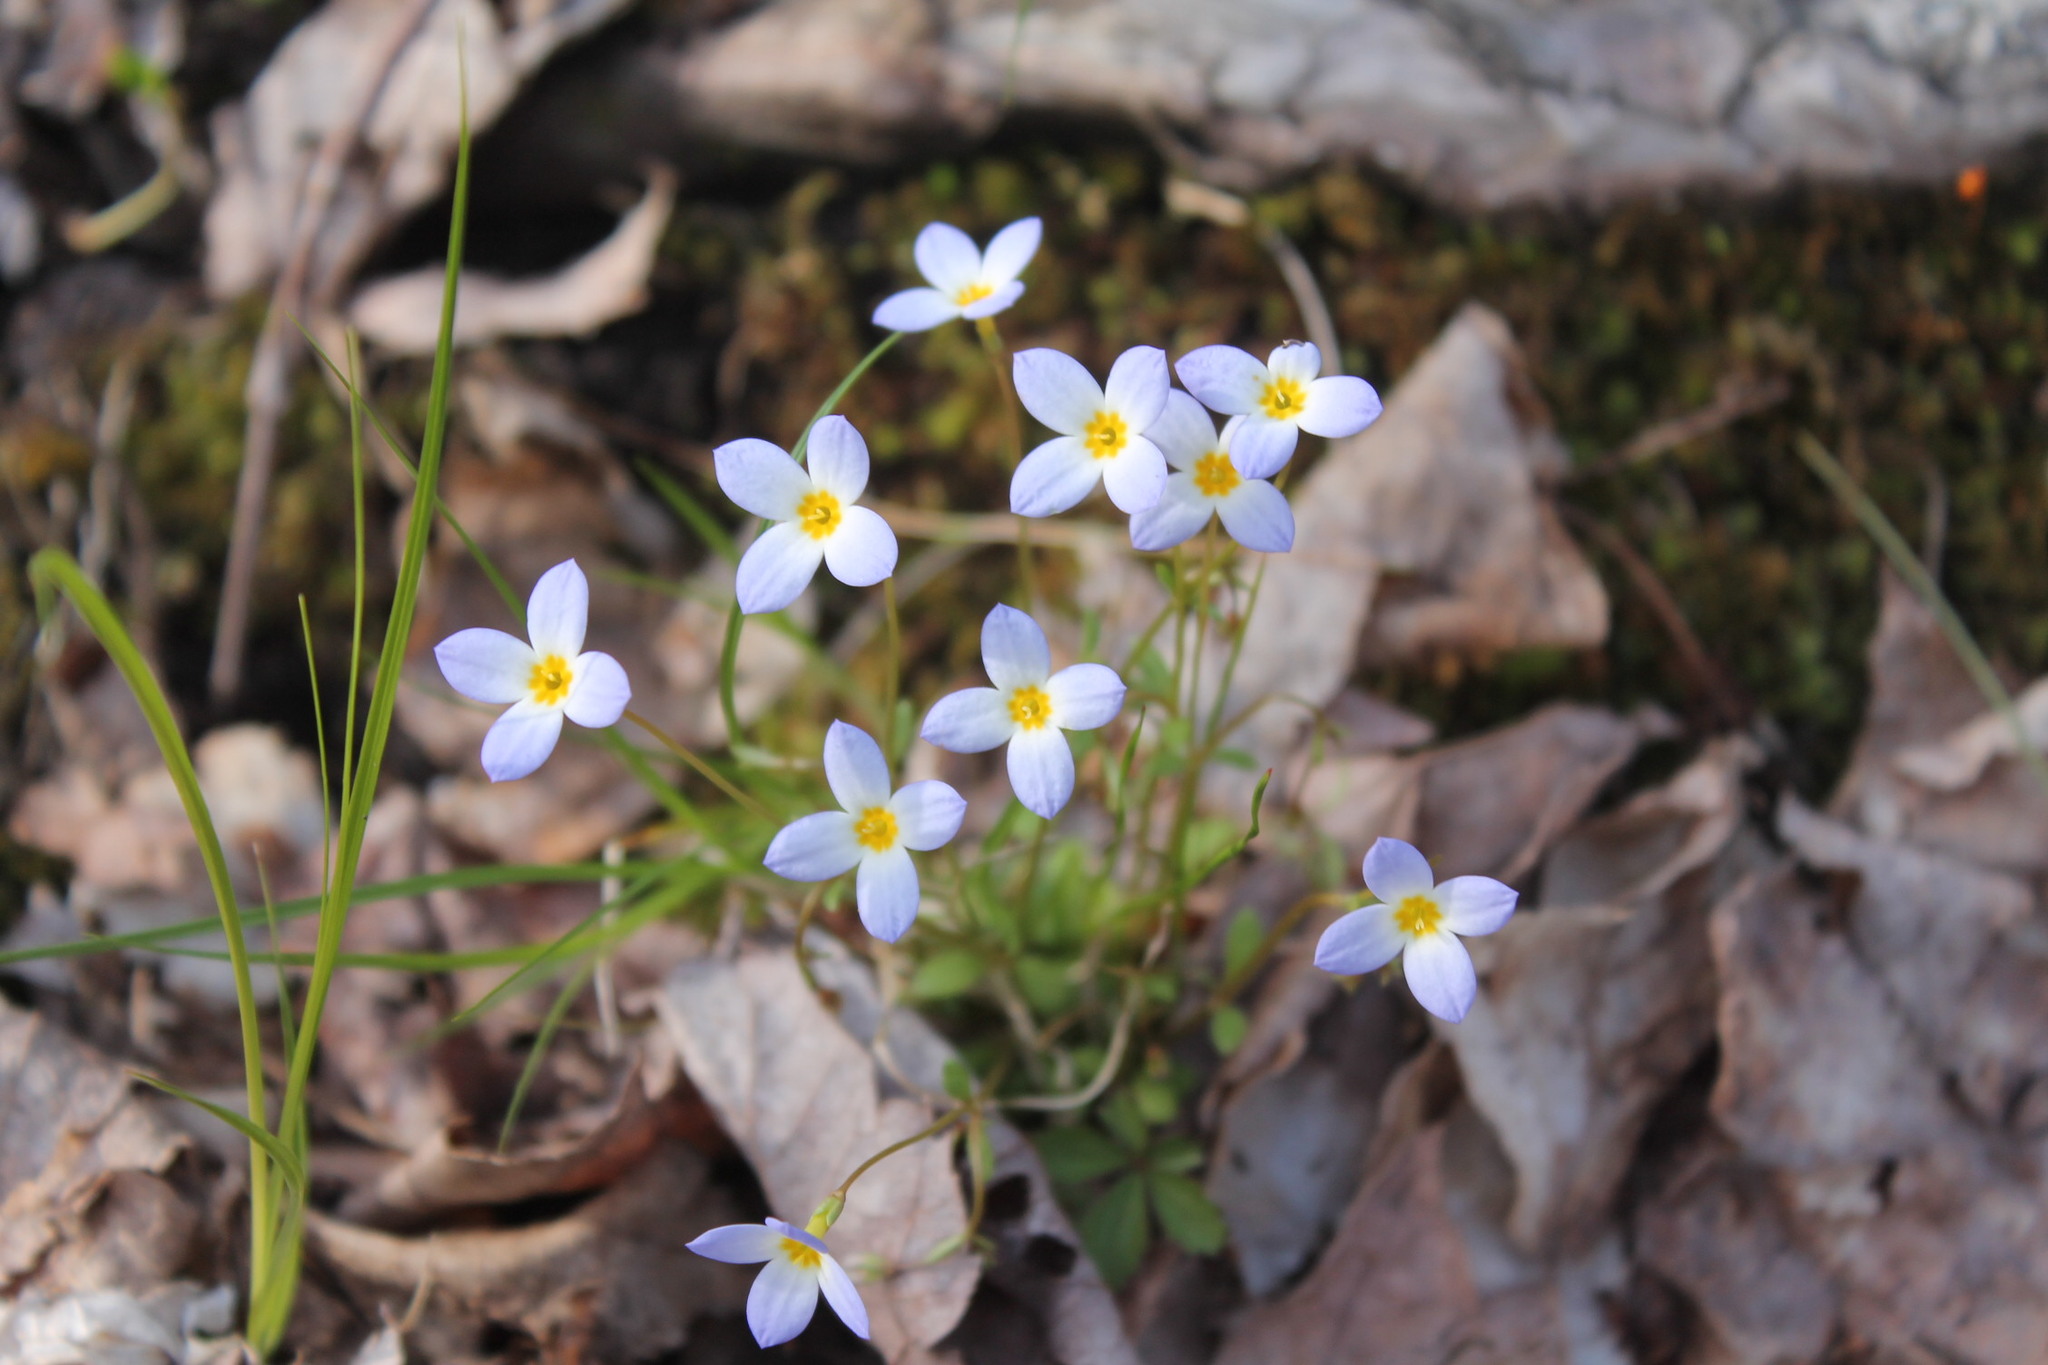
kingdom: Plantae
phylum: Tracheophyta
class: Magnoliopsida
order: Gentianales
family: Rubiaceae
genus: Houstonia
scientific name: Houstonia caerulea
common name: Bluets
